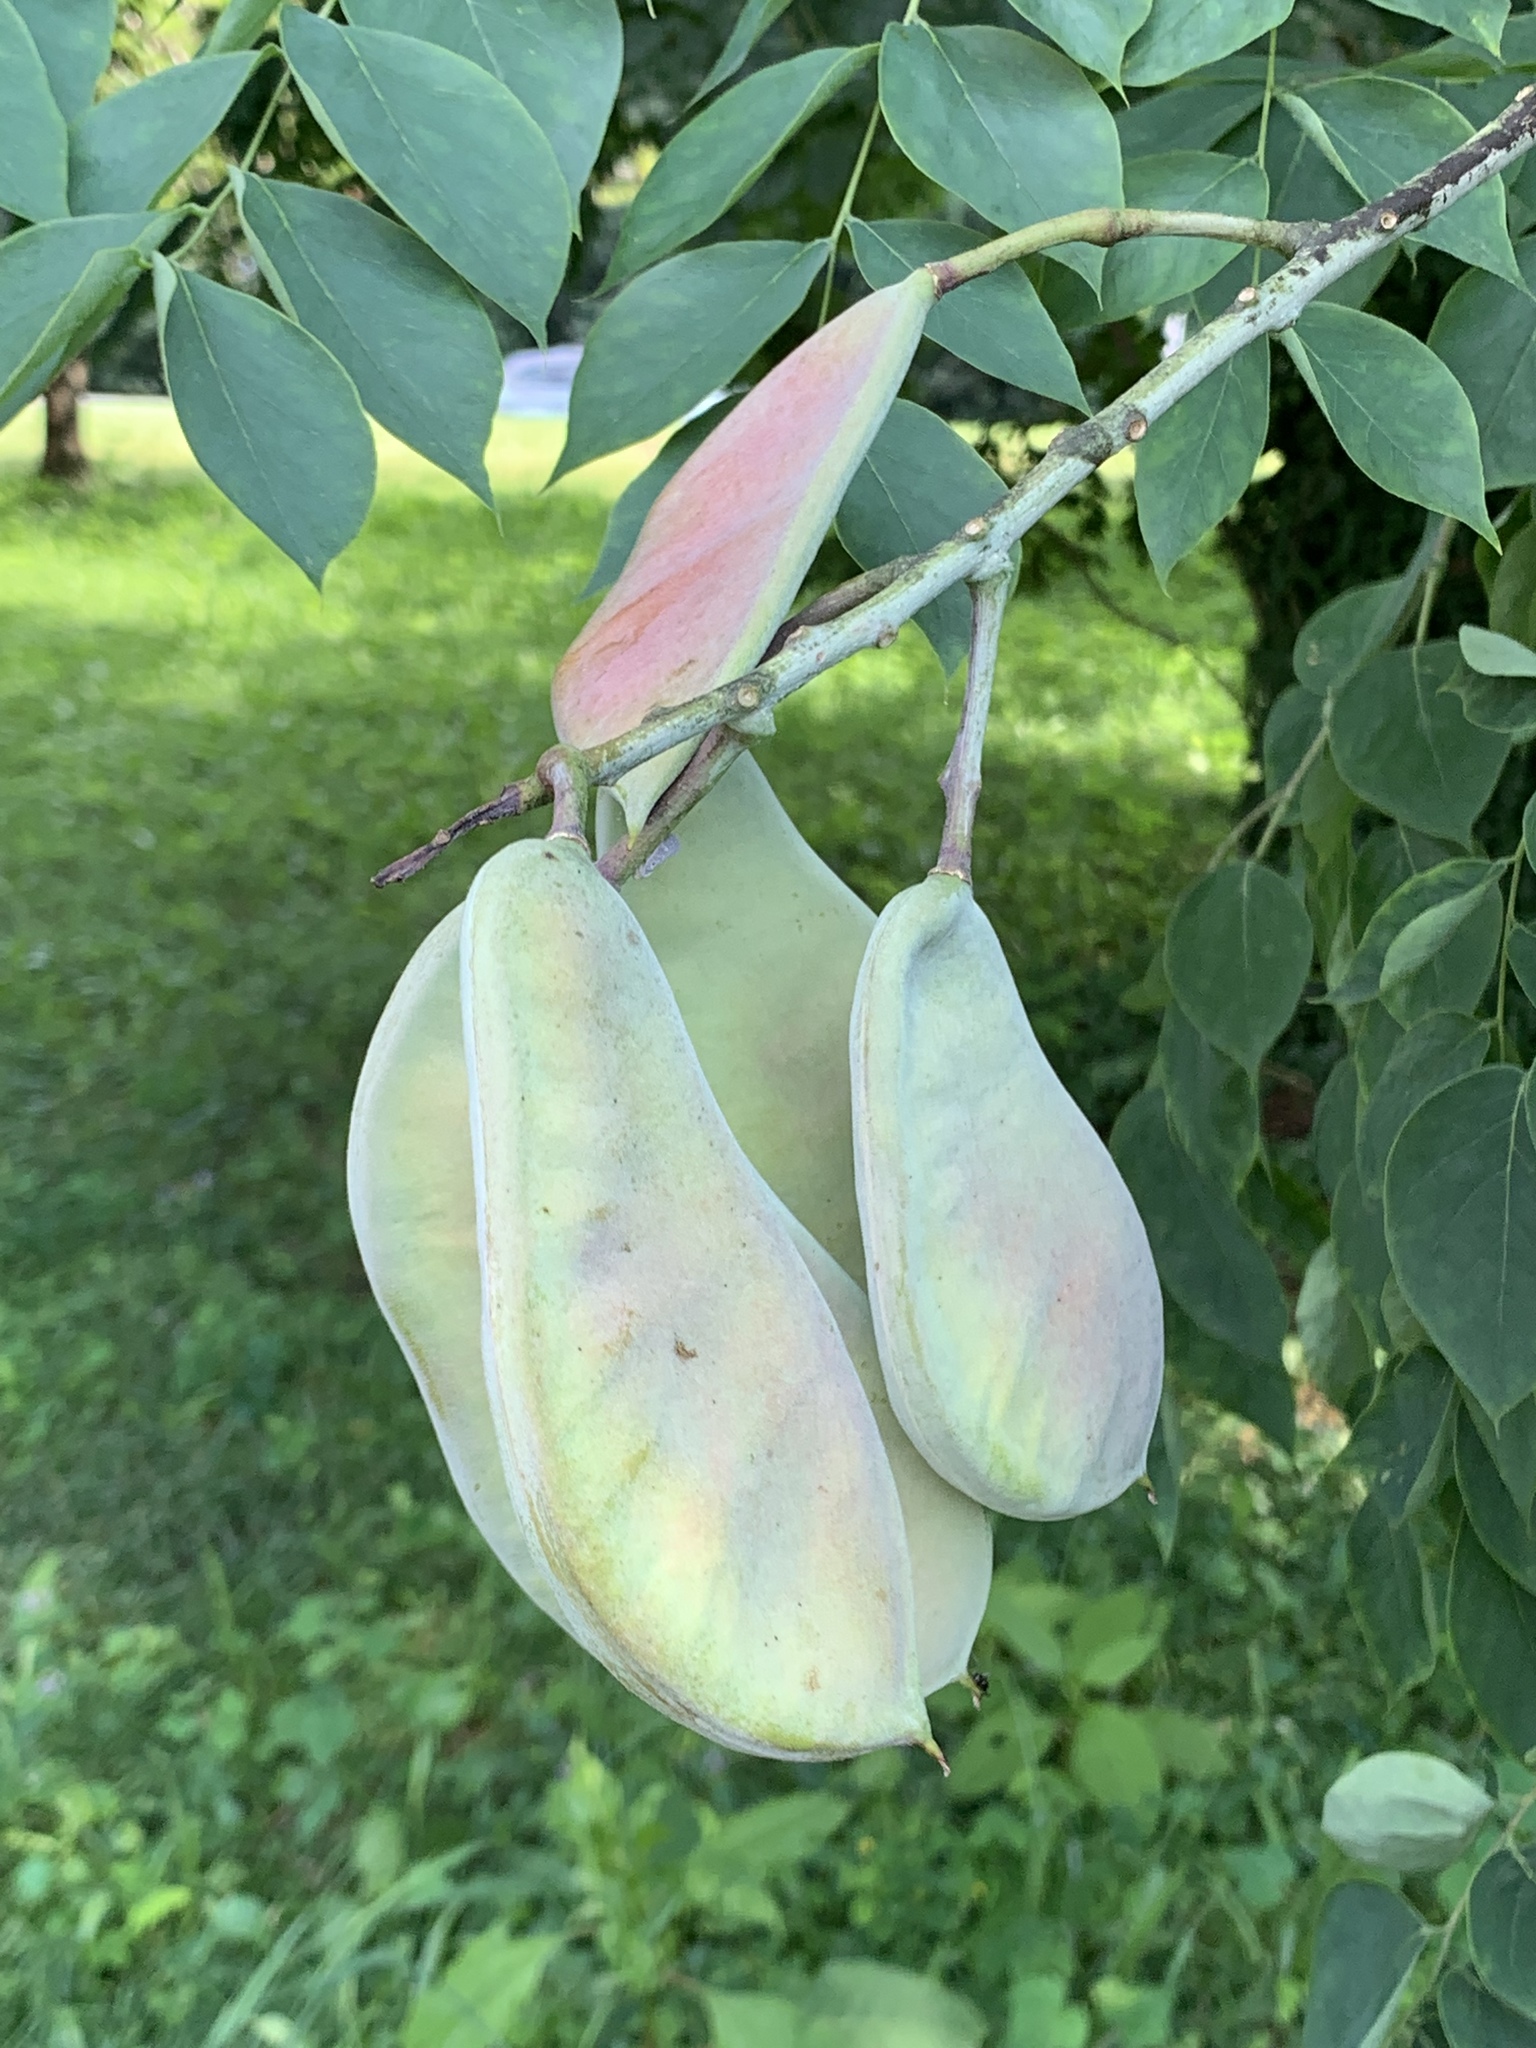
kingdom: Plantae
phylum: Tracheophyta
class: Magnoliopsida
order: Fabales
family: Fabaceae
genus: Gymnocladus
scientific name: Gymnocladus dioicus
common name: Kentucky coffee-tree
